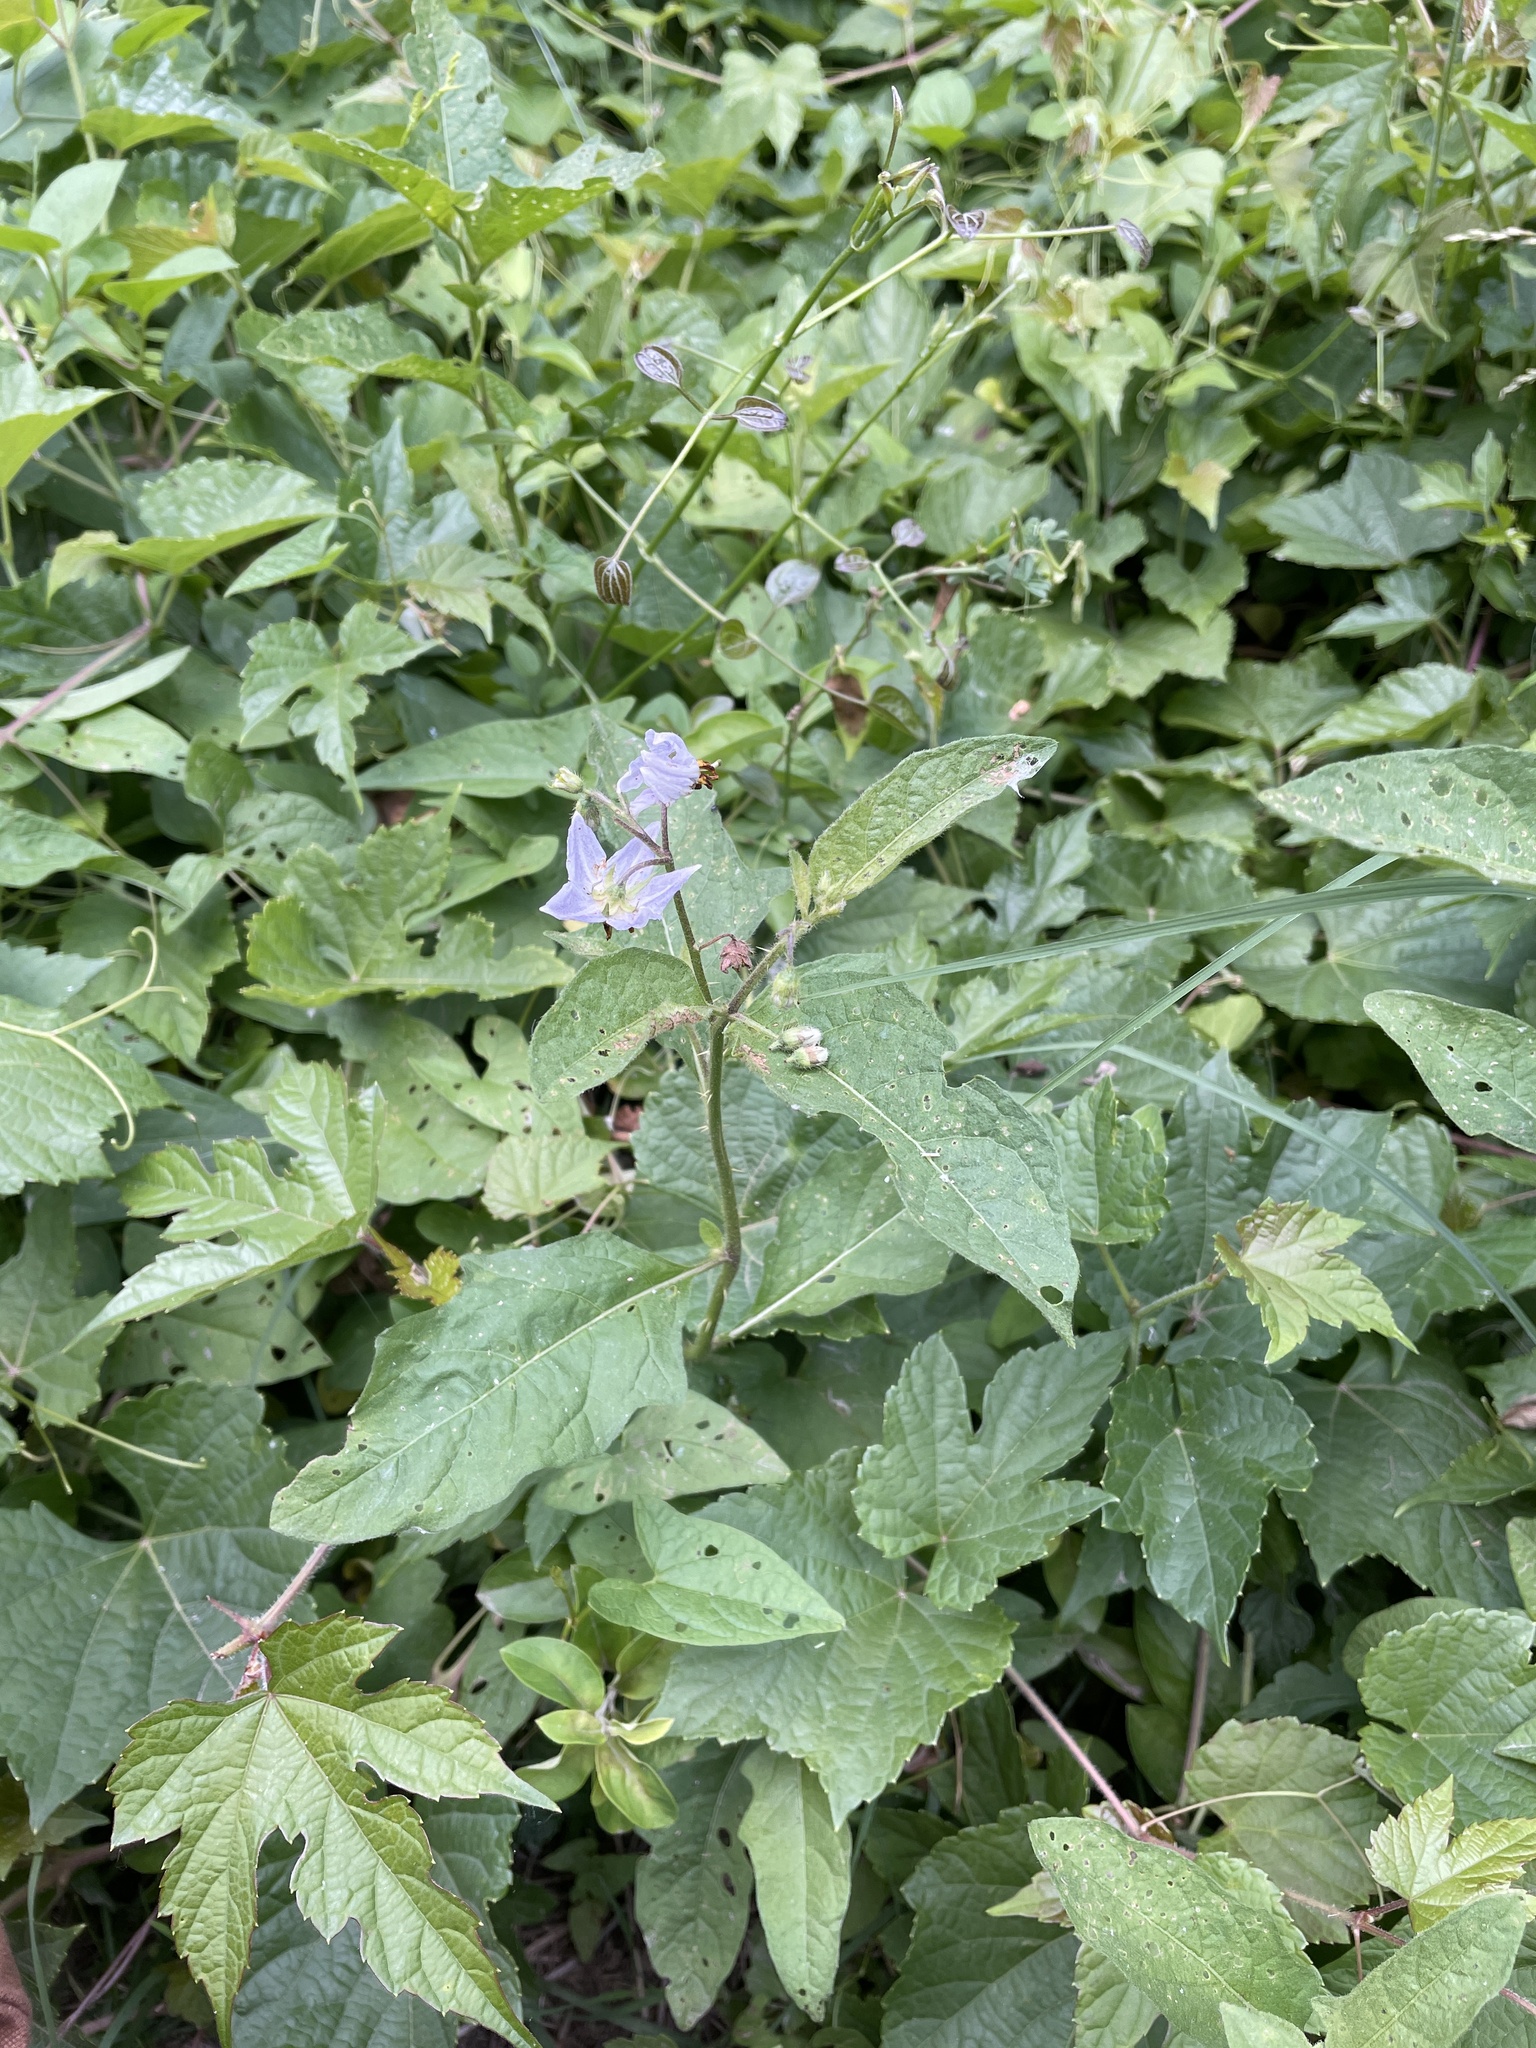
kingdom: Plantae
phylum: Tracheophyta
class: Magnoliopsida
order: Solanales
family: Solanaceae
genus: Solanum
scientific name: Solanum carolinense
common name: Horse-nettle
